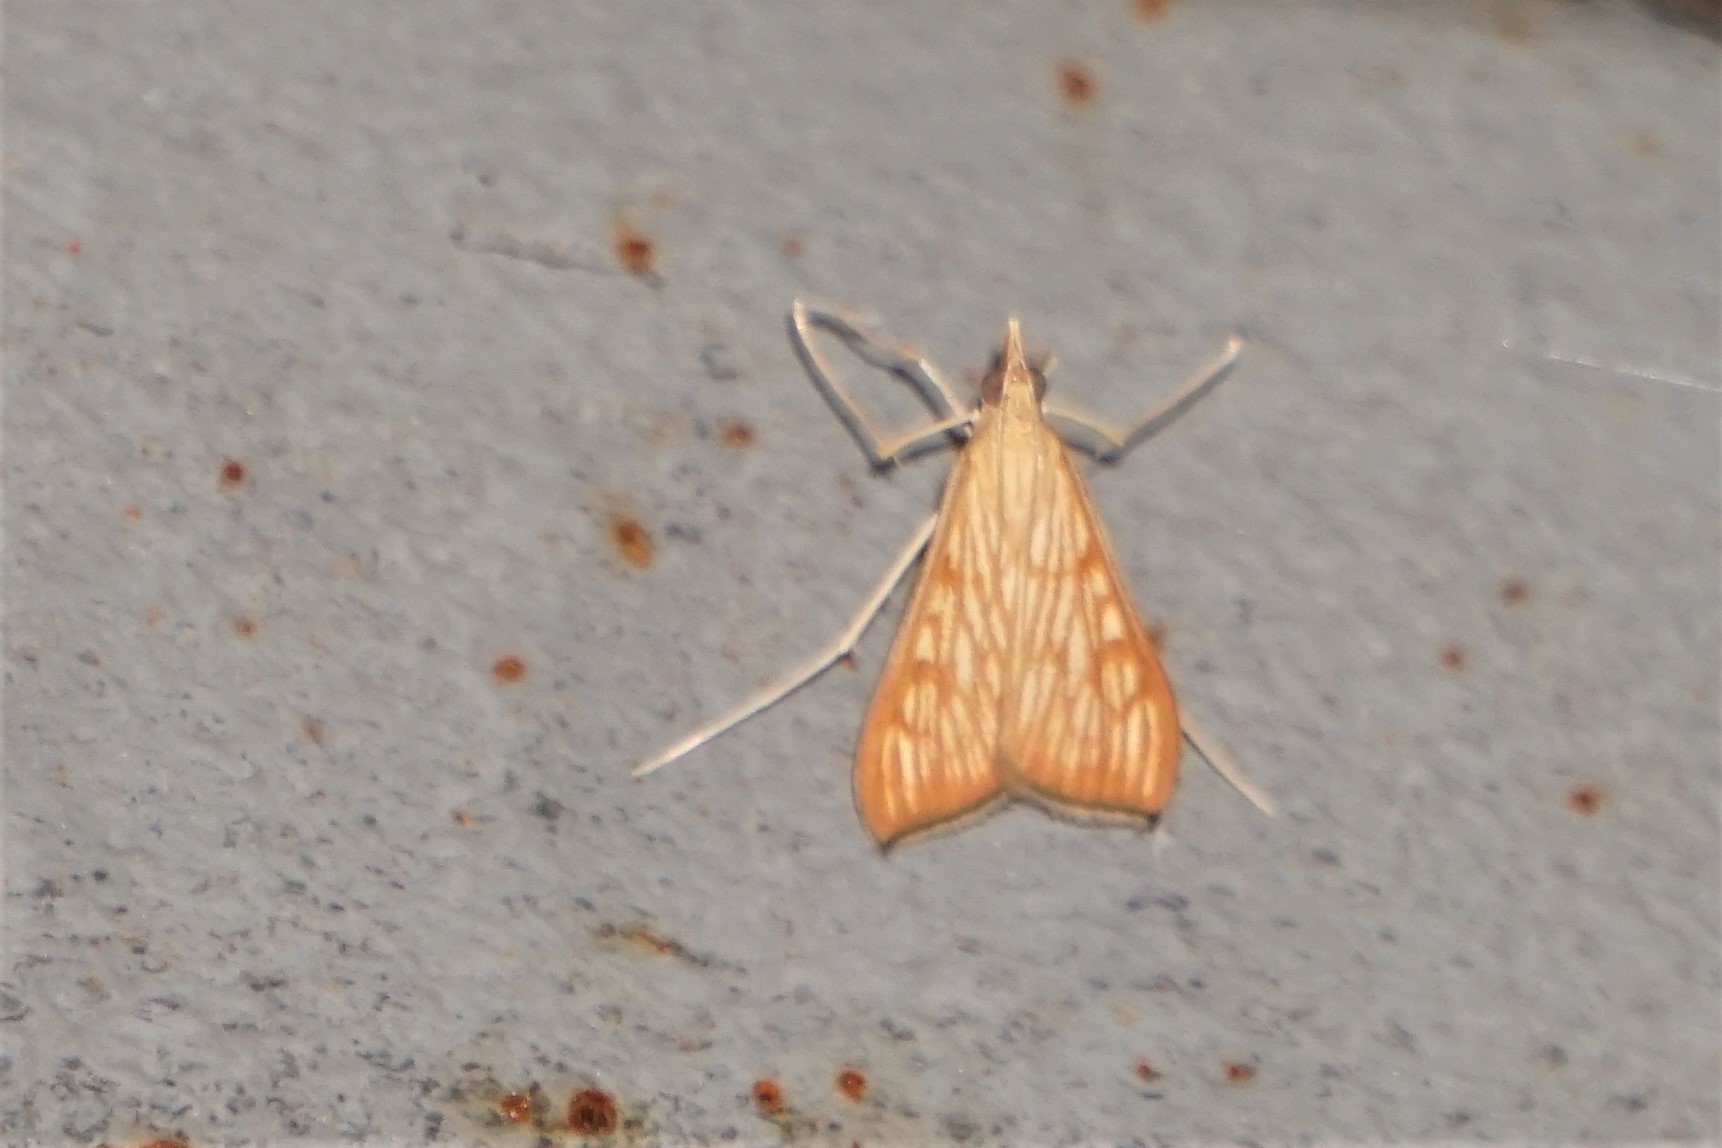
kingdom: Animalia
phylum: Arthropoda
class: Insecta
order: Lepidoptera
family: Crambidae
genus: Antigastra
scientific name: Antigastra catalaunalis
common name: Spanish dot
